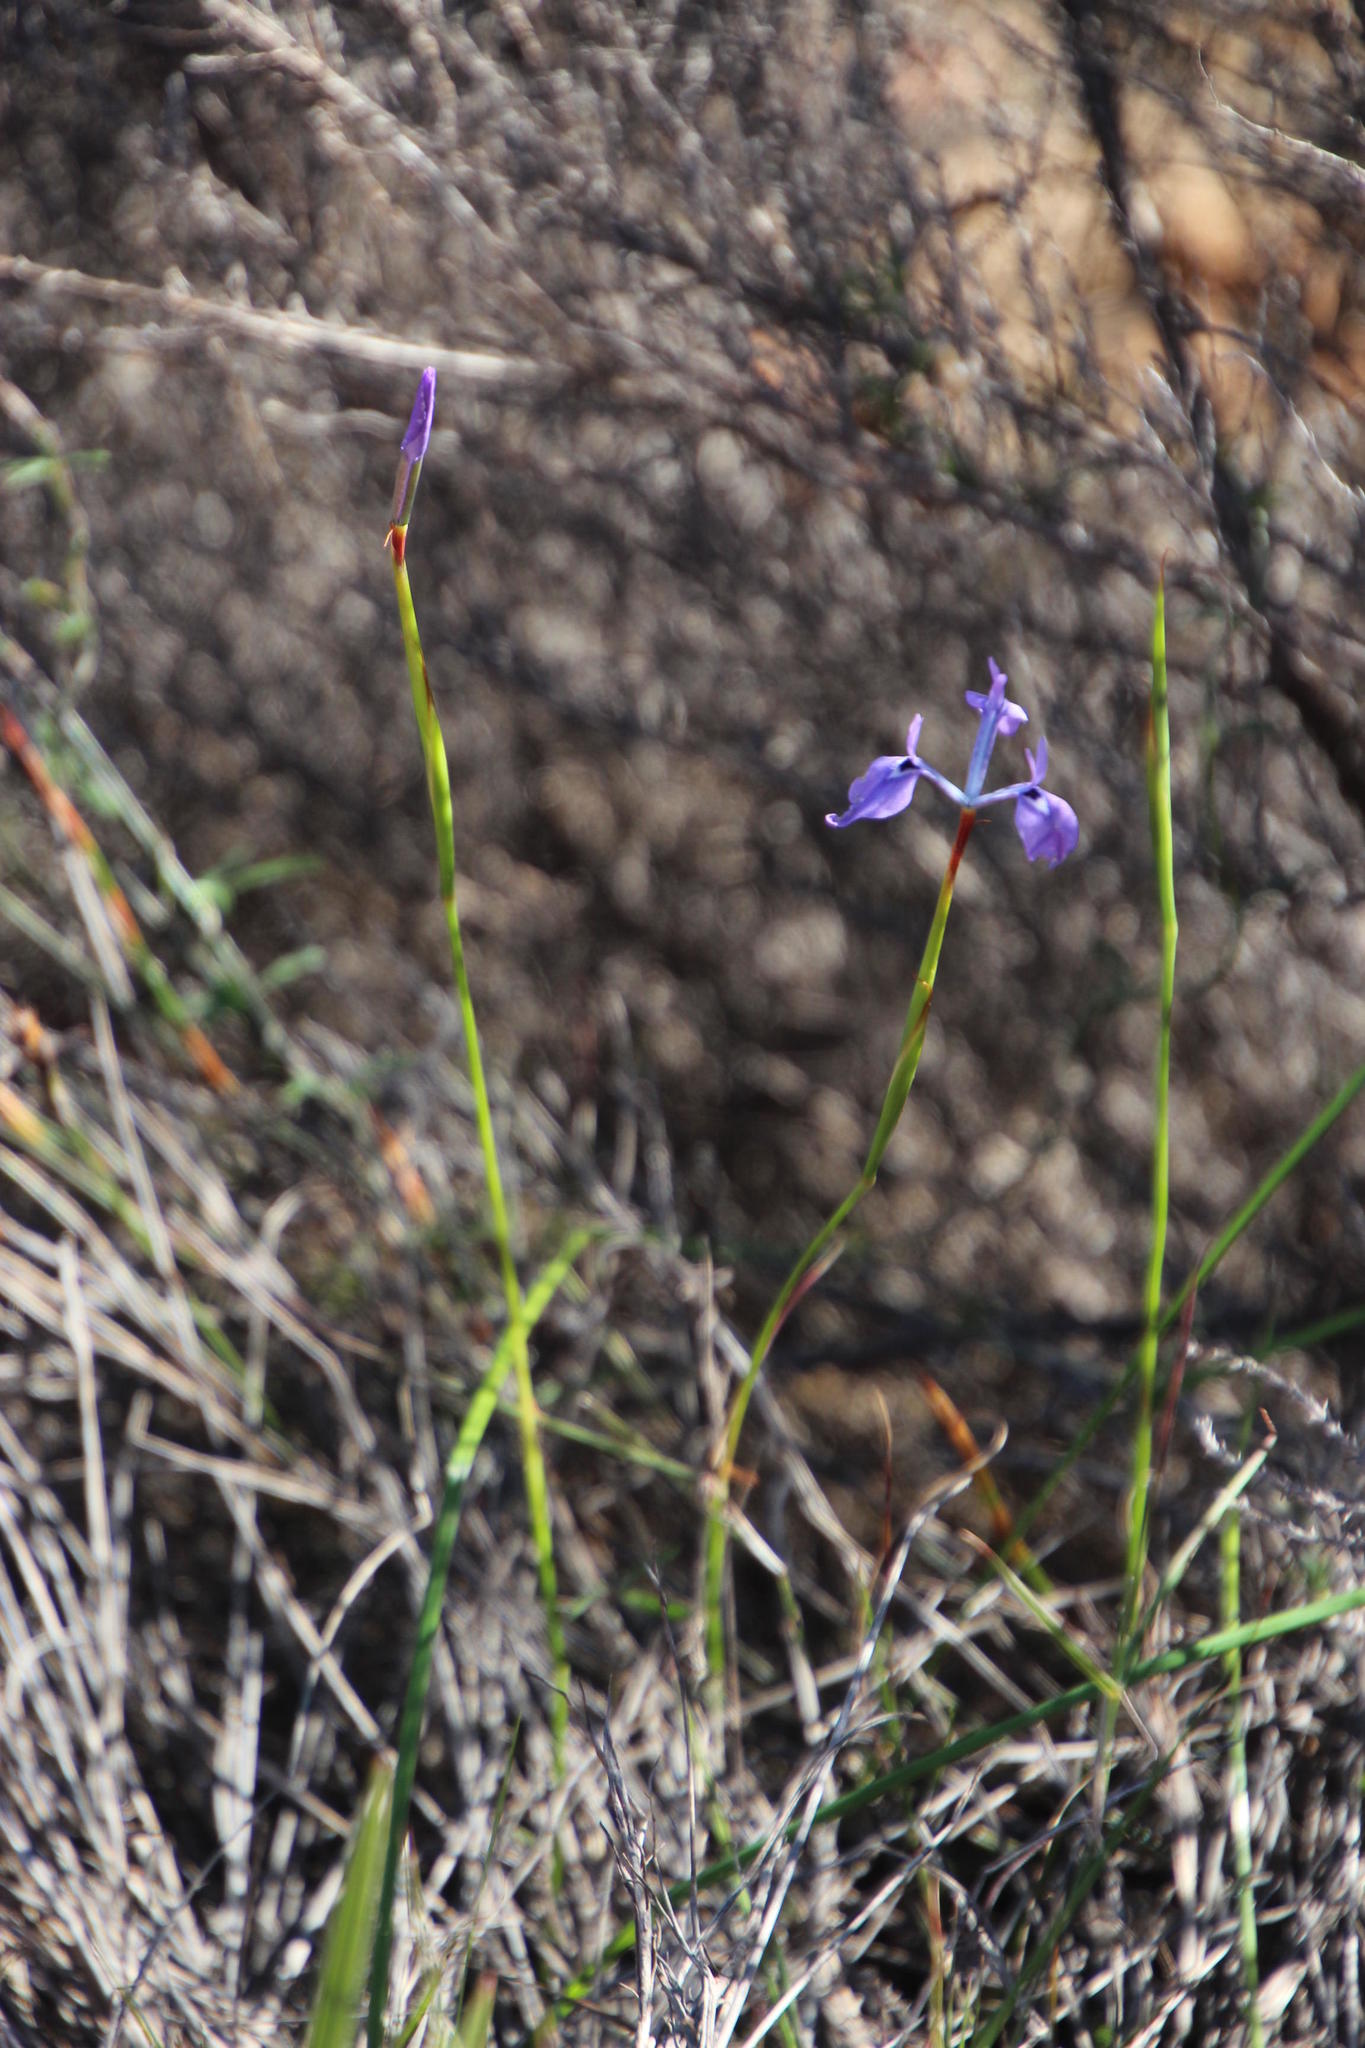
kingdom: Plantae
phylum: Tracheophyta
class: Liliopsida
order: Asparagales
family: Iridaceae
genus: Moraea
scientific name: Moraea tripetala
